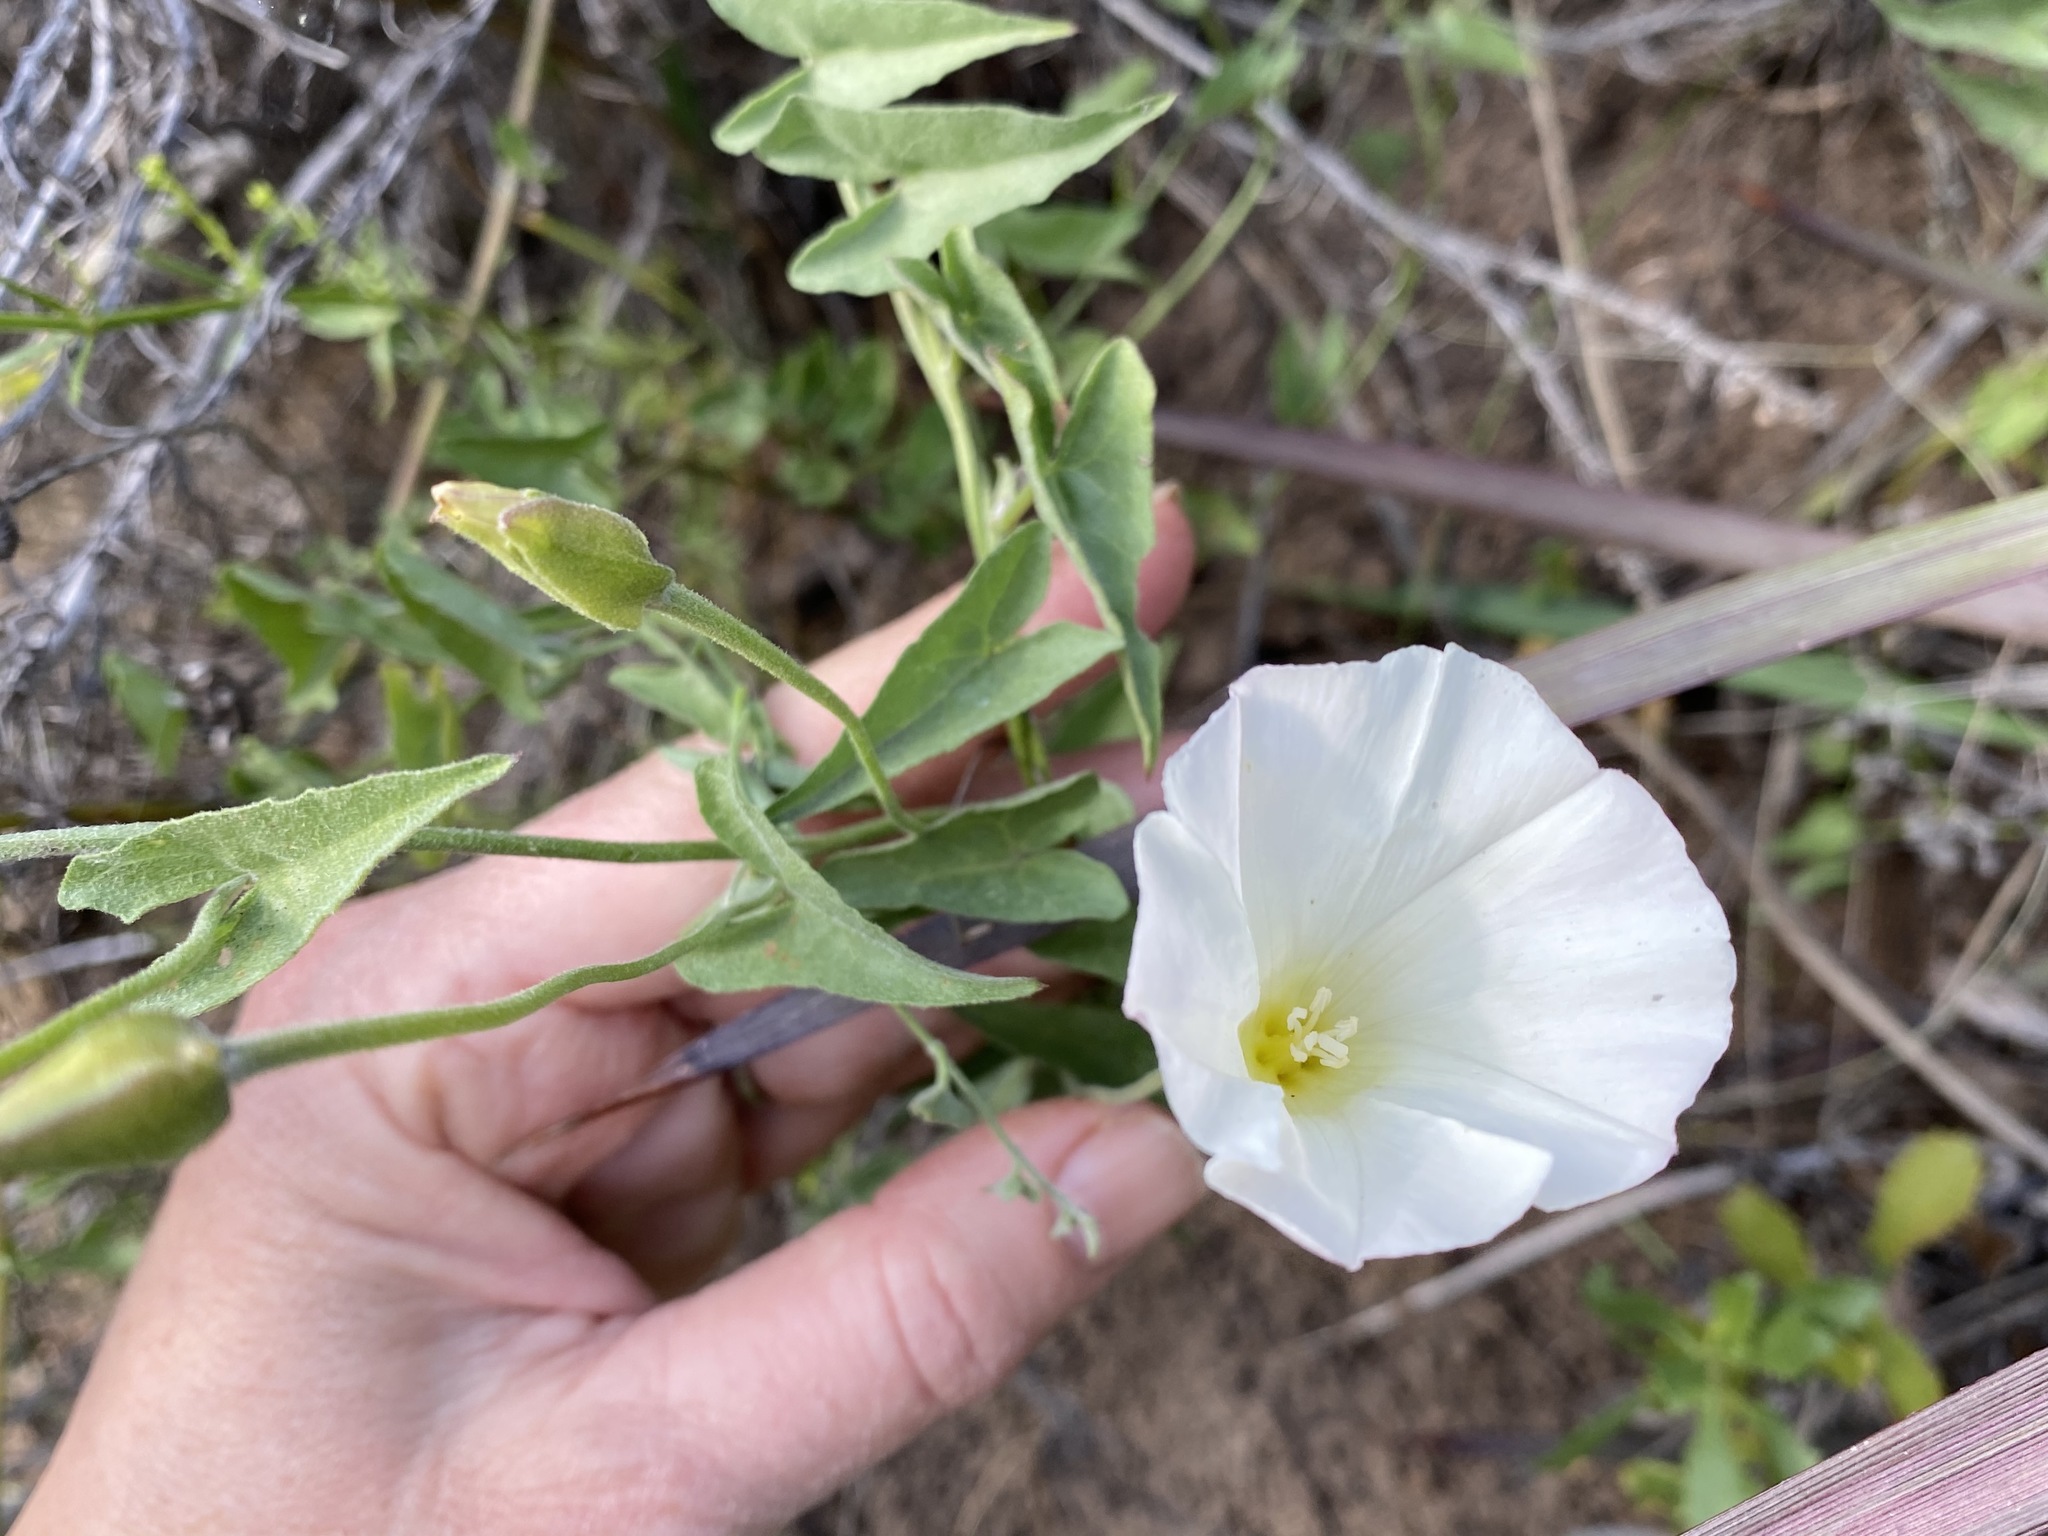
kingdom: Plantae
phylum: Tracheophyta
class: Magnoliopsida
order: Solanales
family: Convolvulaceae
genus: Calystegia
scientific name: Calystegia macrostegia
